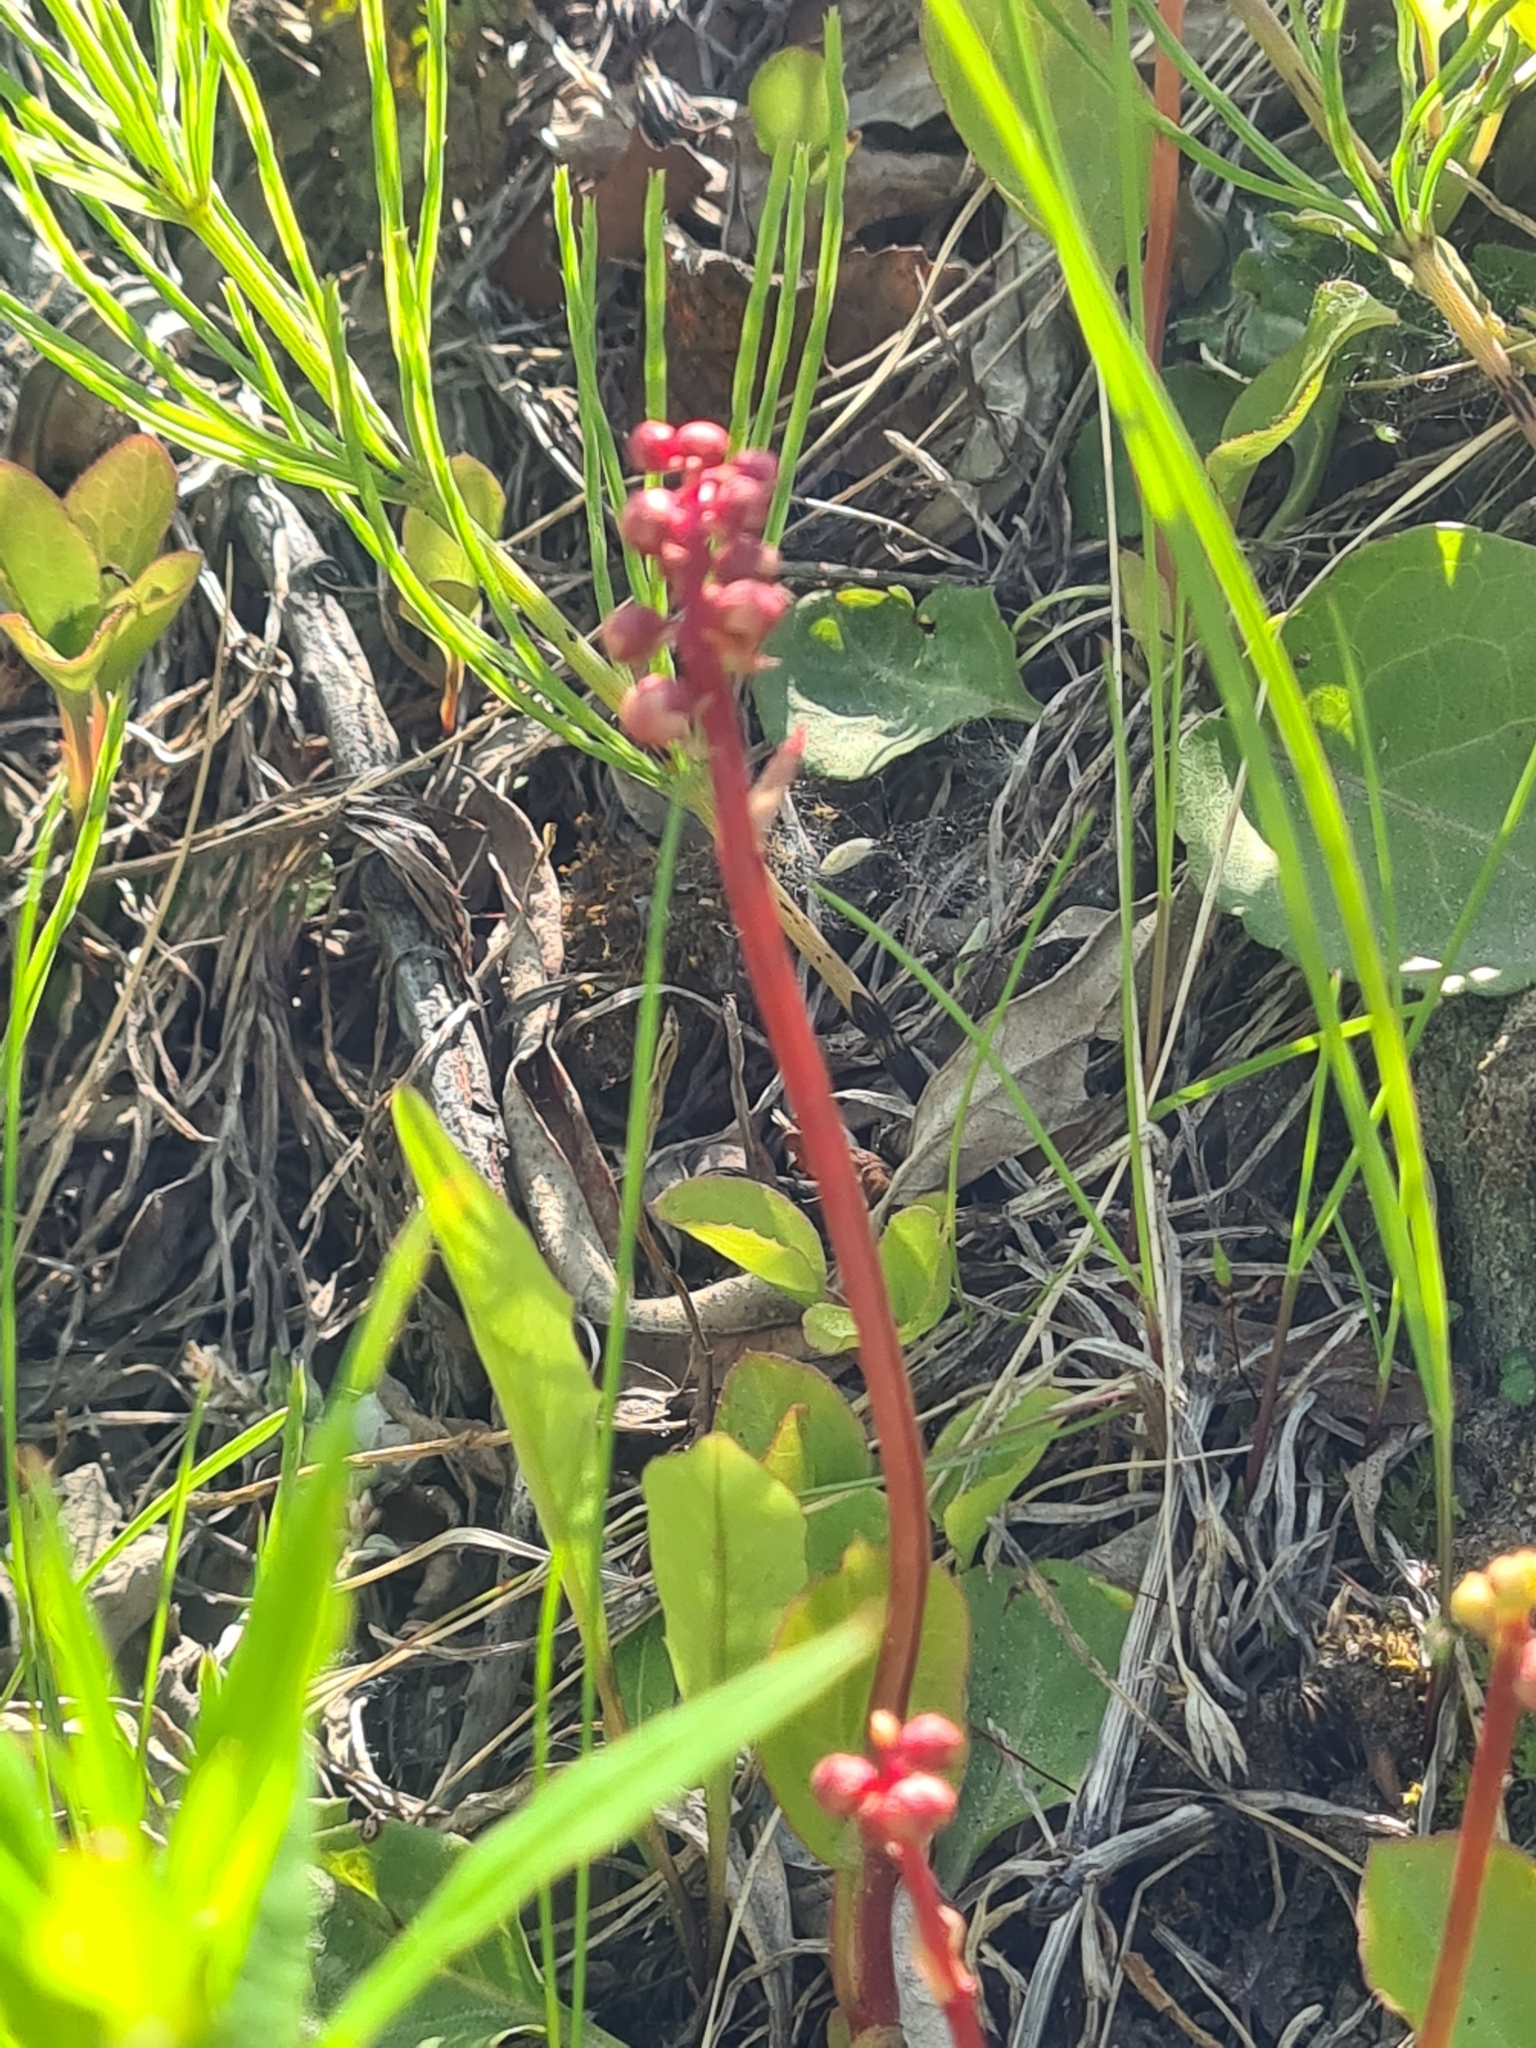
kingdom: Plantae
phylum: Tracheophyta
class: Magnoliopsida
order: Ericales
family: Ericaceae
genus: Pyrola
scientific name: Pyrola minor
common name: Common wintergreen
